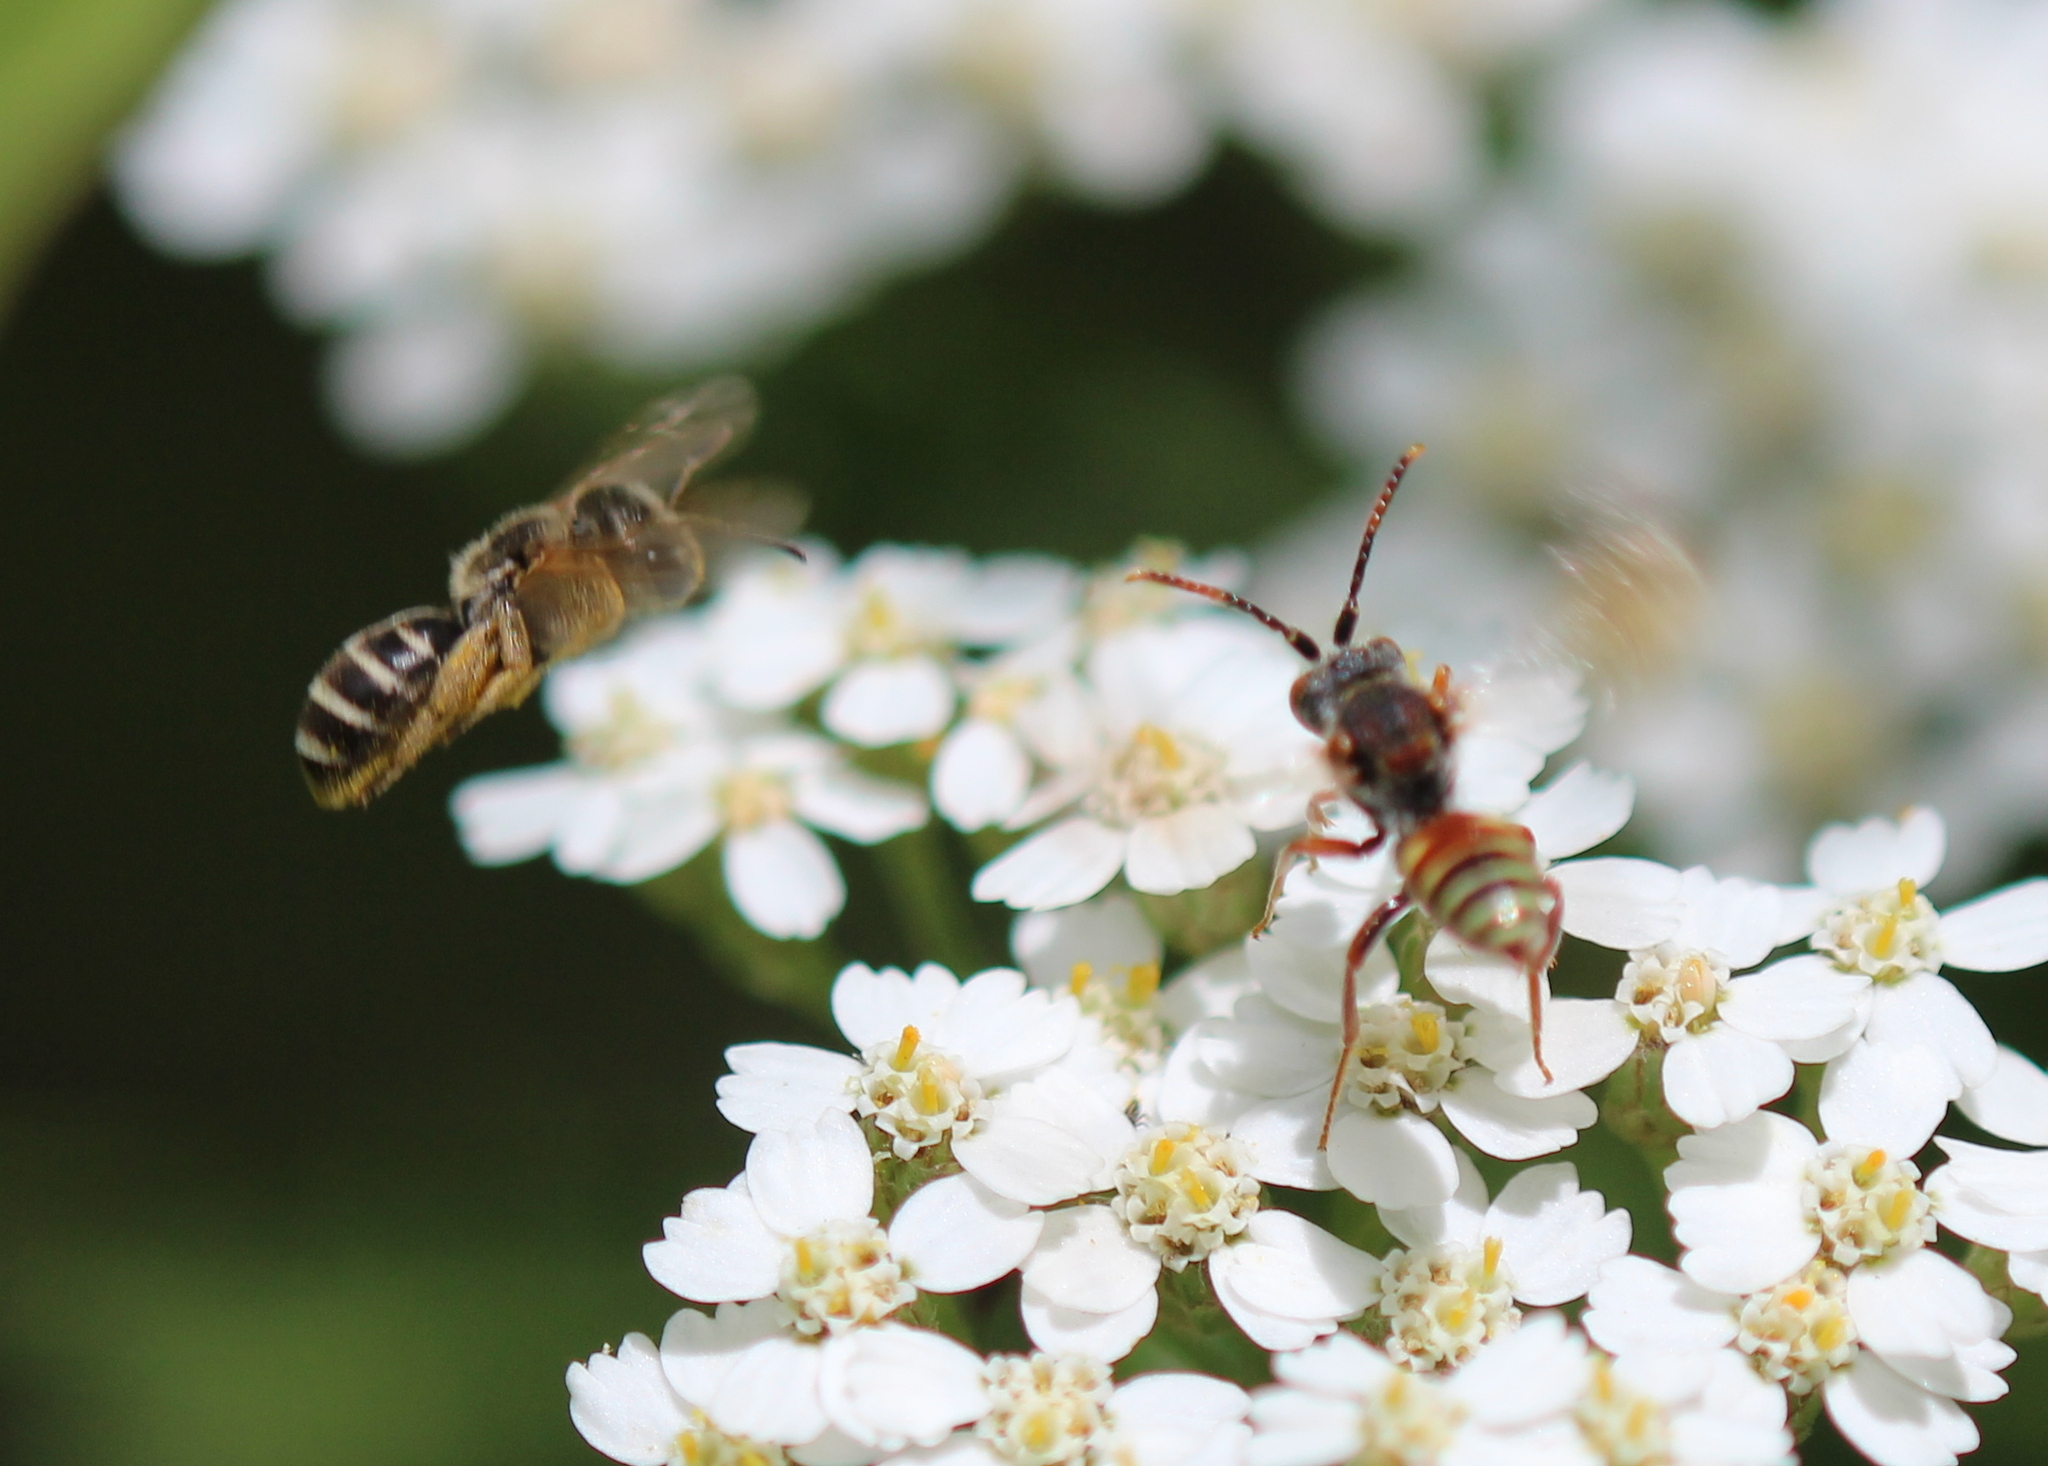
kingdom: Animalia
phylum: Arthropoda
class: Insecta
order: Hymenoptera
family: Halictidae
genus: Halictus
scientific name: Halictus ligatus
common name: Ligated furrow bee
